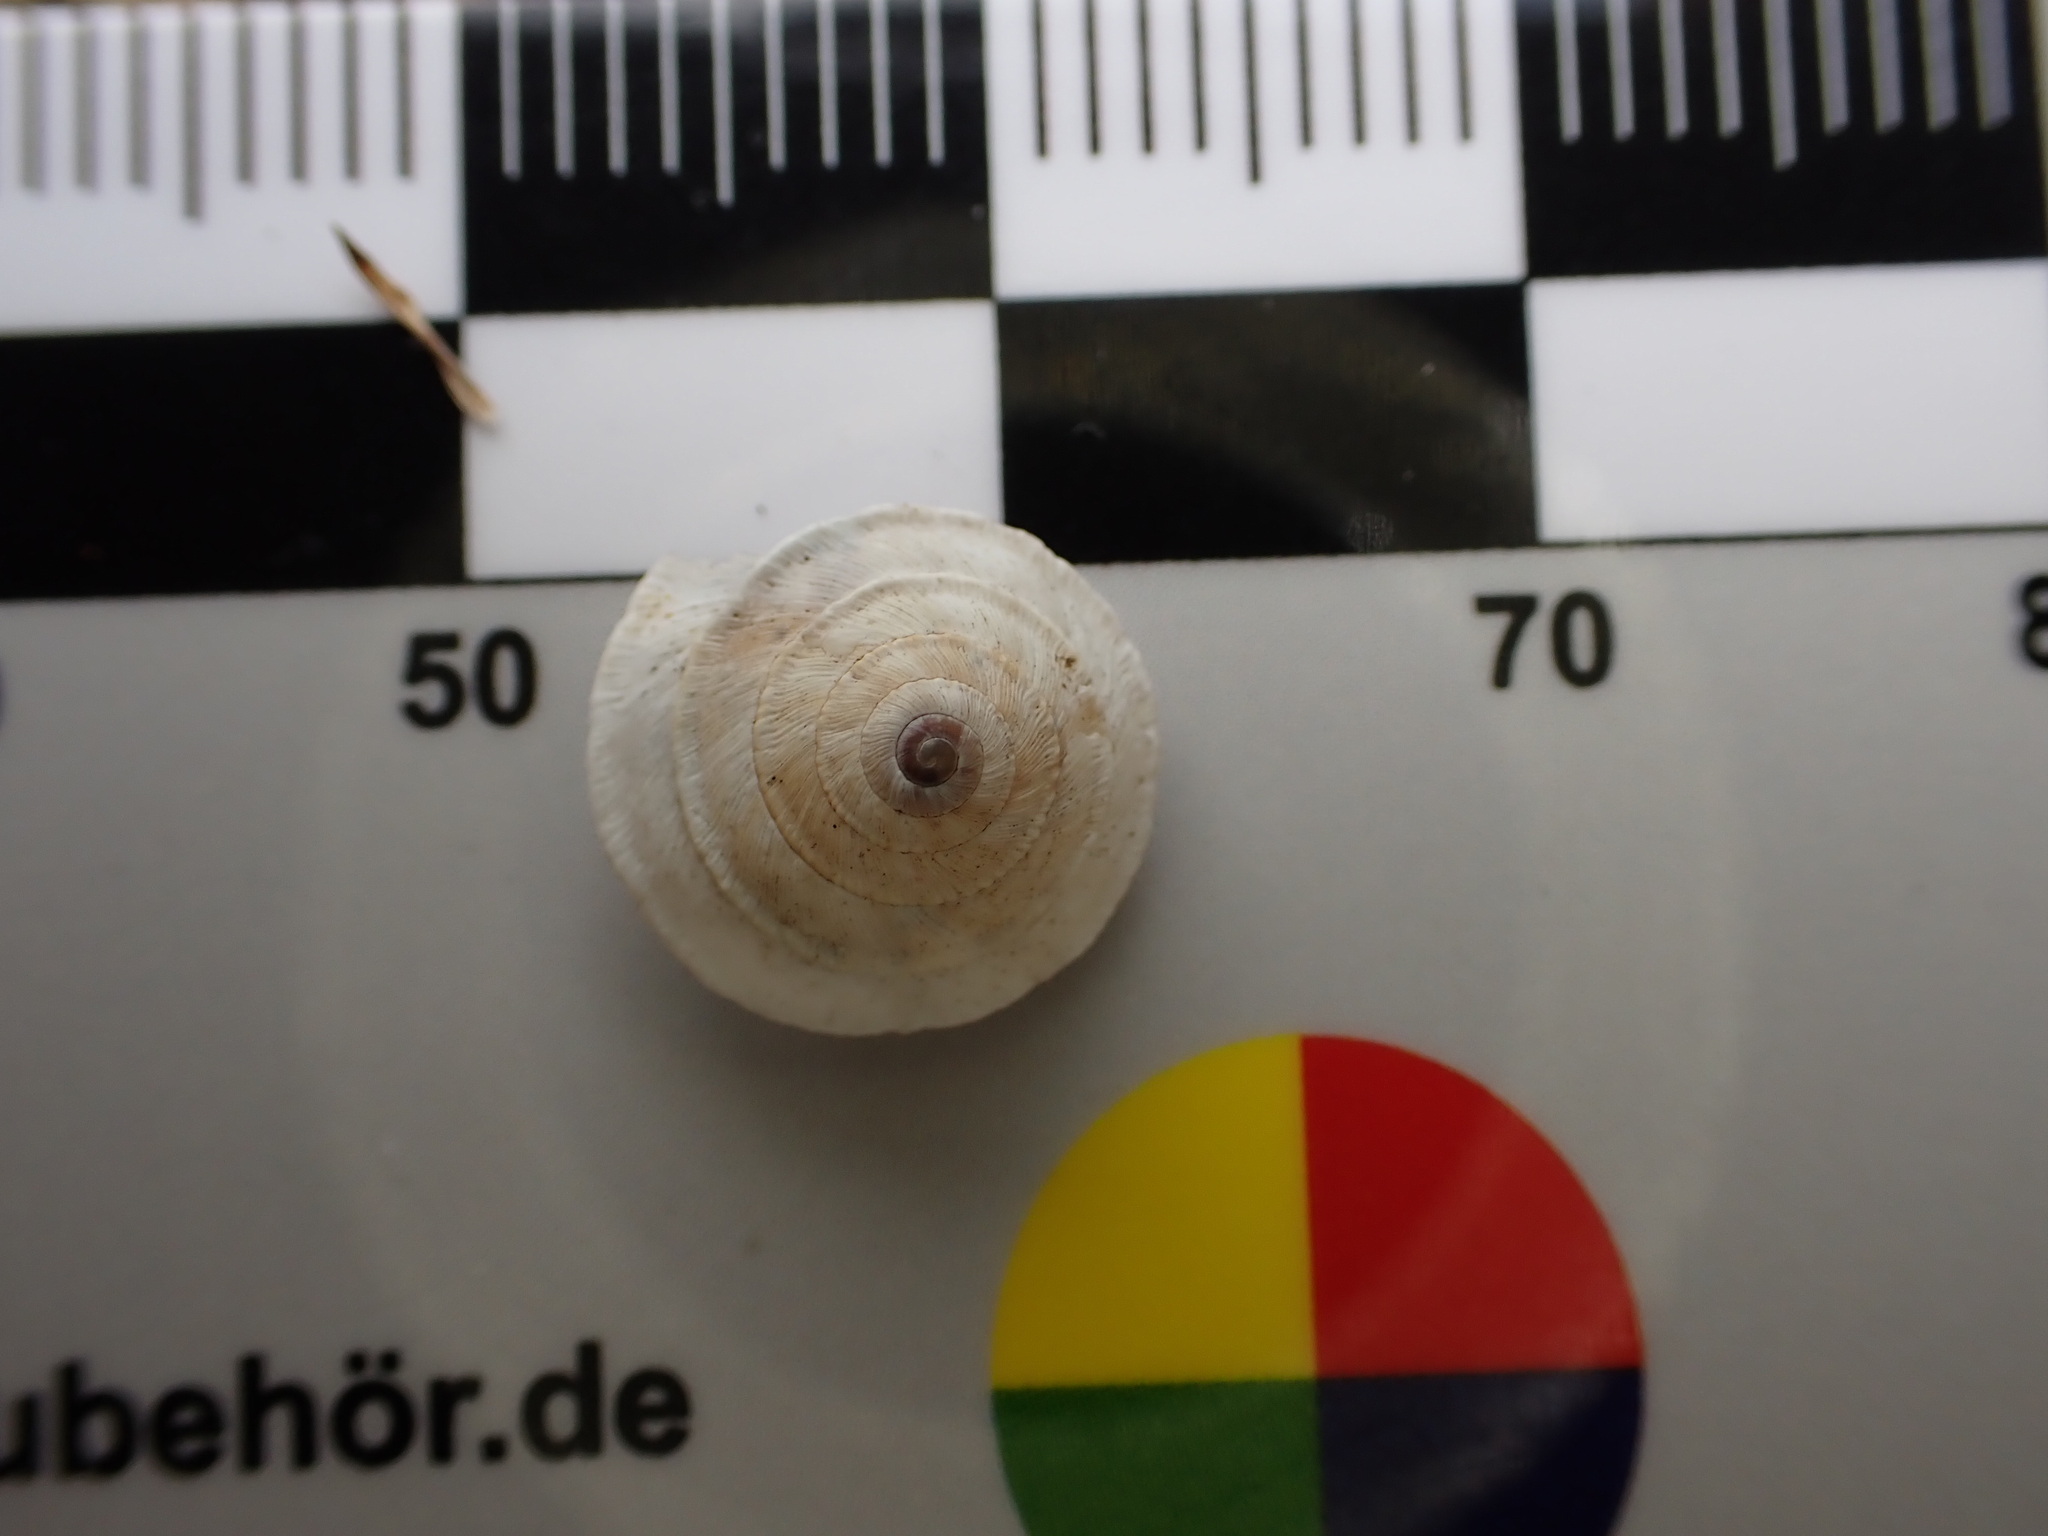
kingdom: Animalia
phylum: Mollusca
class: Gastropoda
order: Stylommatophora
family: Geomitridae
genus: Trochoidea
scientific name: Trochoidea elegans
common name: Elegant helicellid
